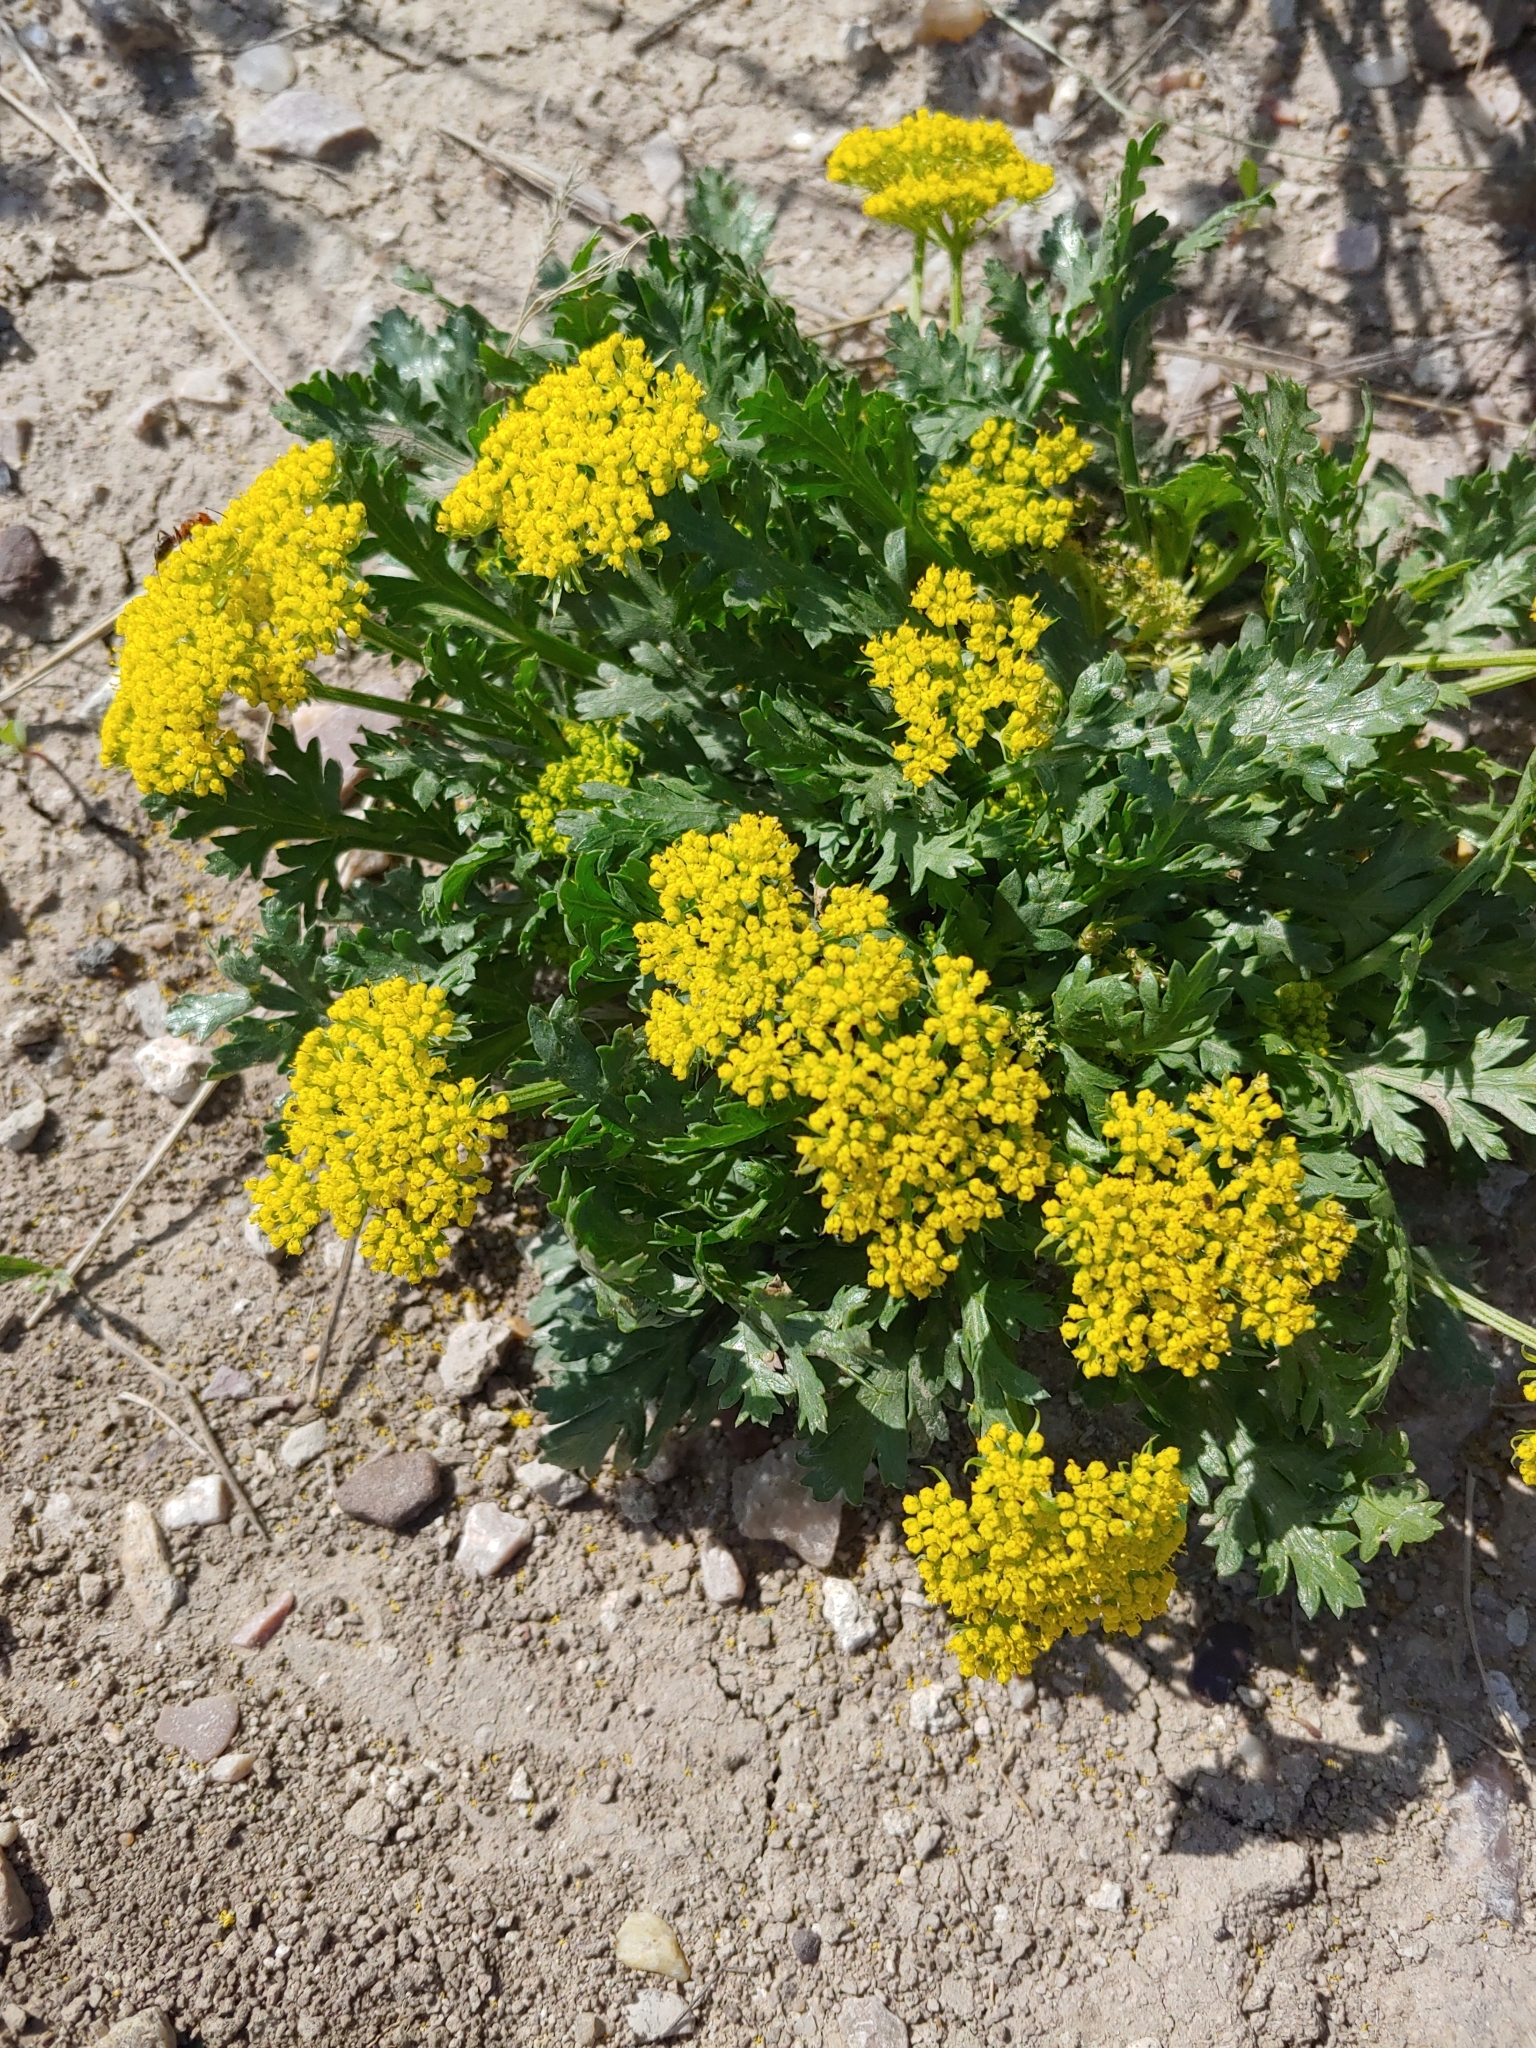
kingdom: Plantae
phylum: Tracheophyta
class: Magnoliopsida
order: Apiales
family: Apiaceae
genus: Musineon
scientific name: Musineon divaricatum
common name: Plains musineon
